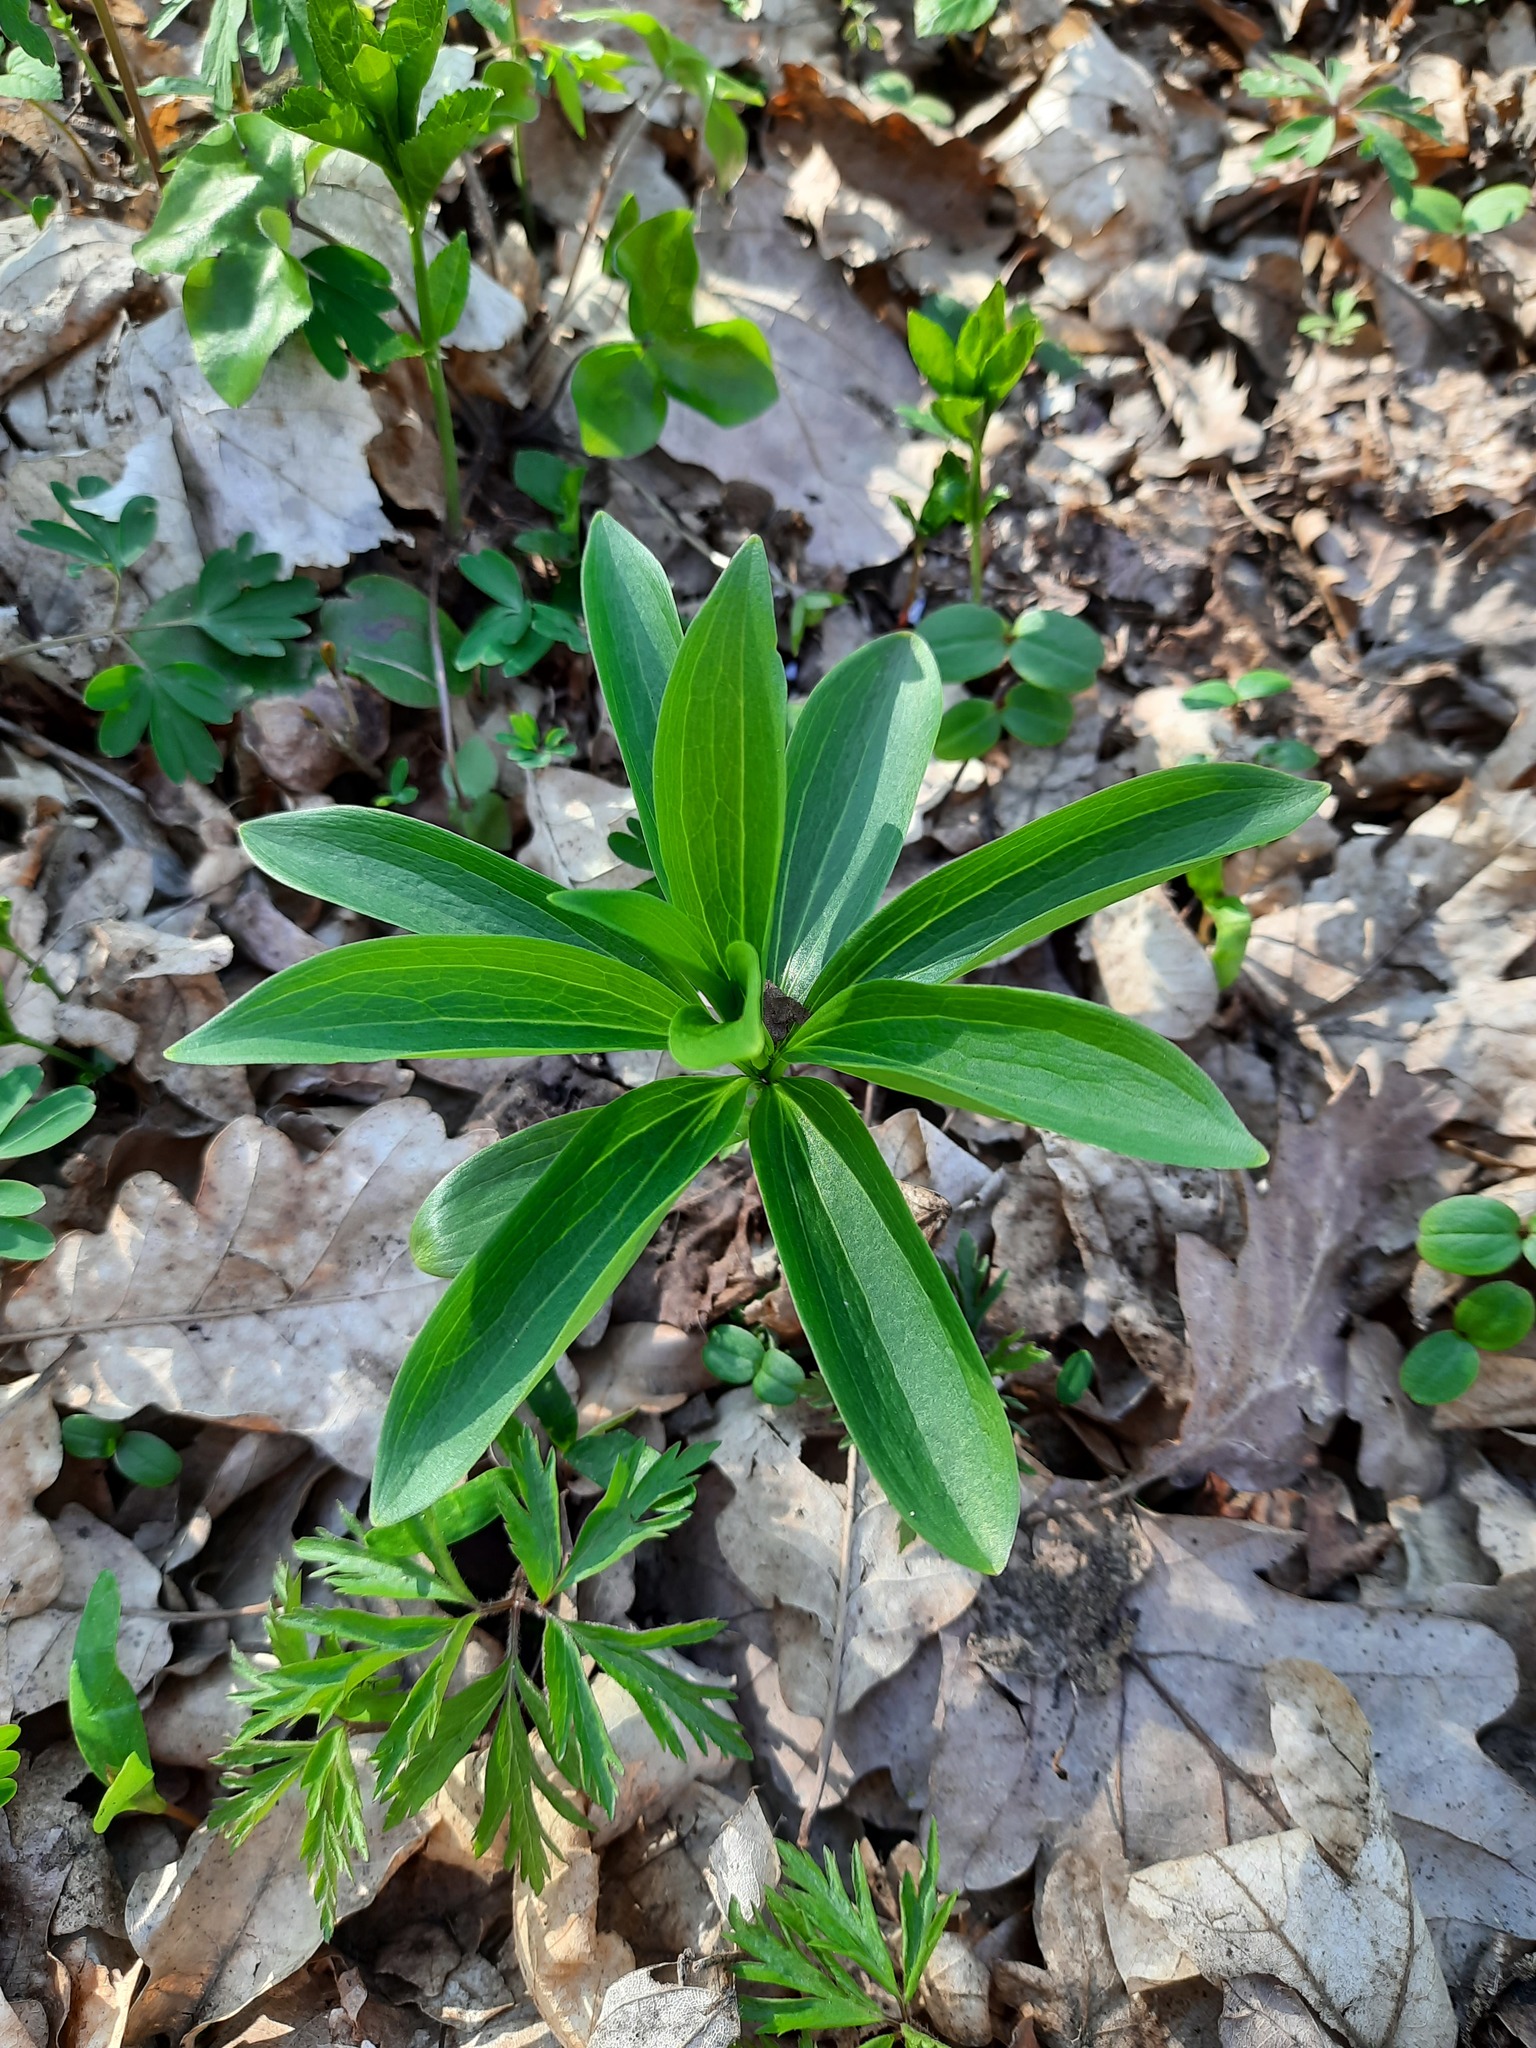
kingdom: Plantae
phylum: Tracheophyta
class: Liliopsida
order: Liliales
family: Liliaceae
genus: Lilium
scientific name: Lilium martagon
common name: Martagon lily
